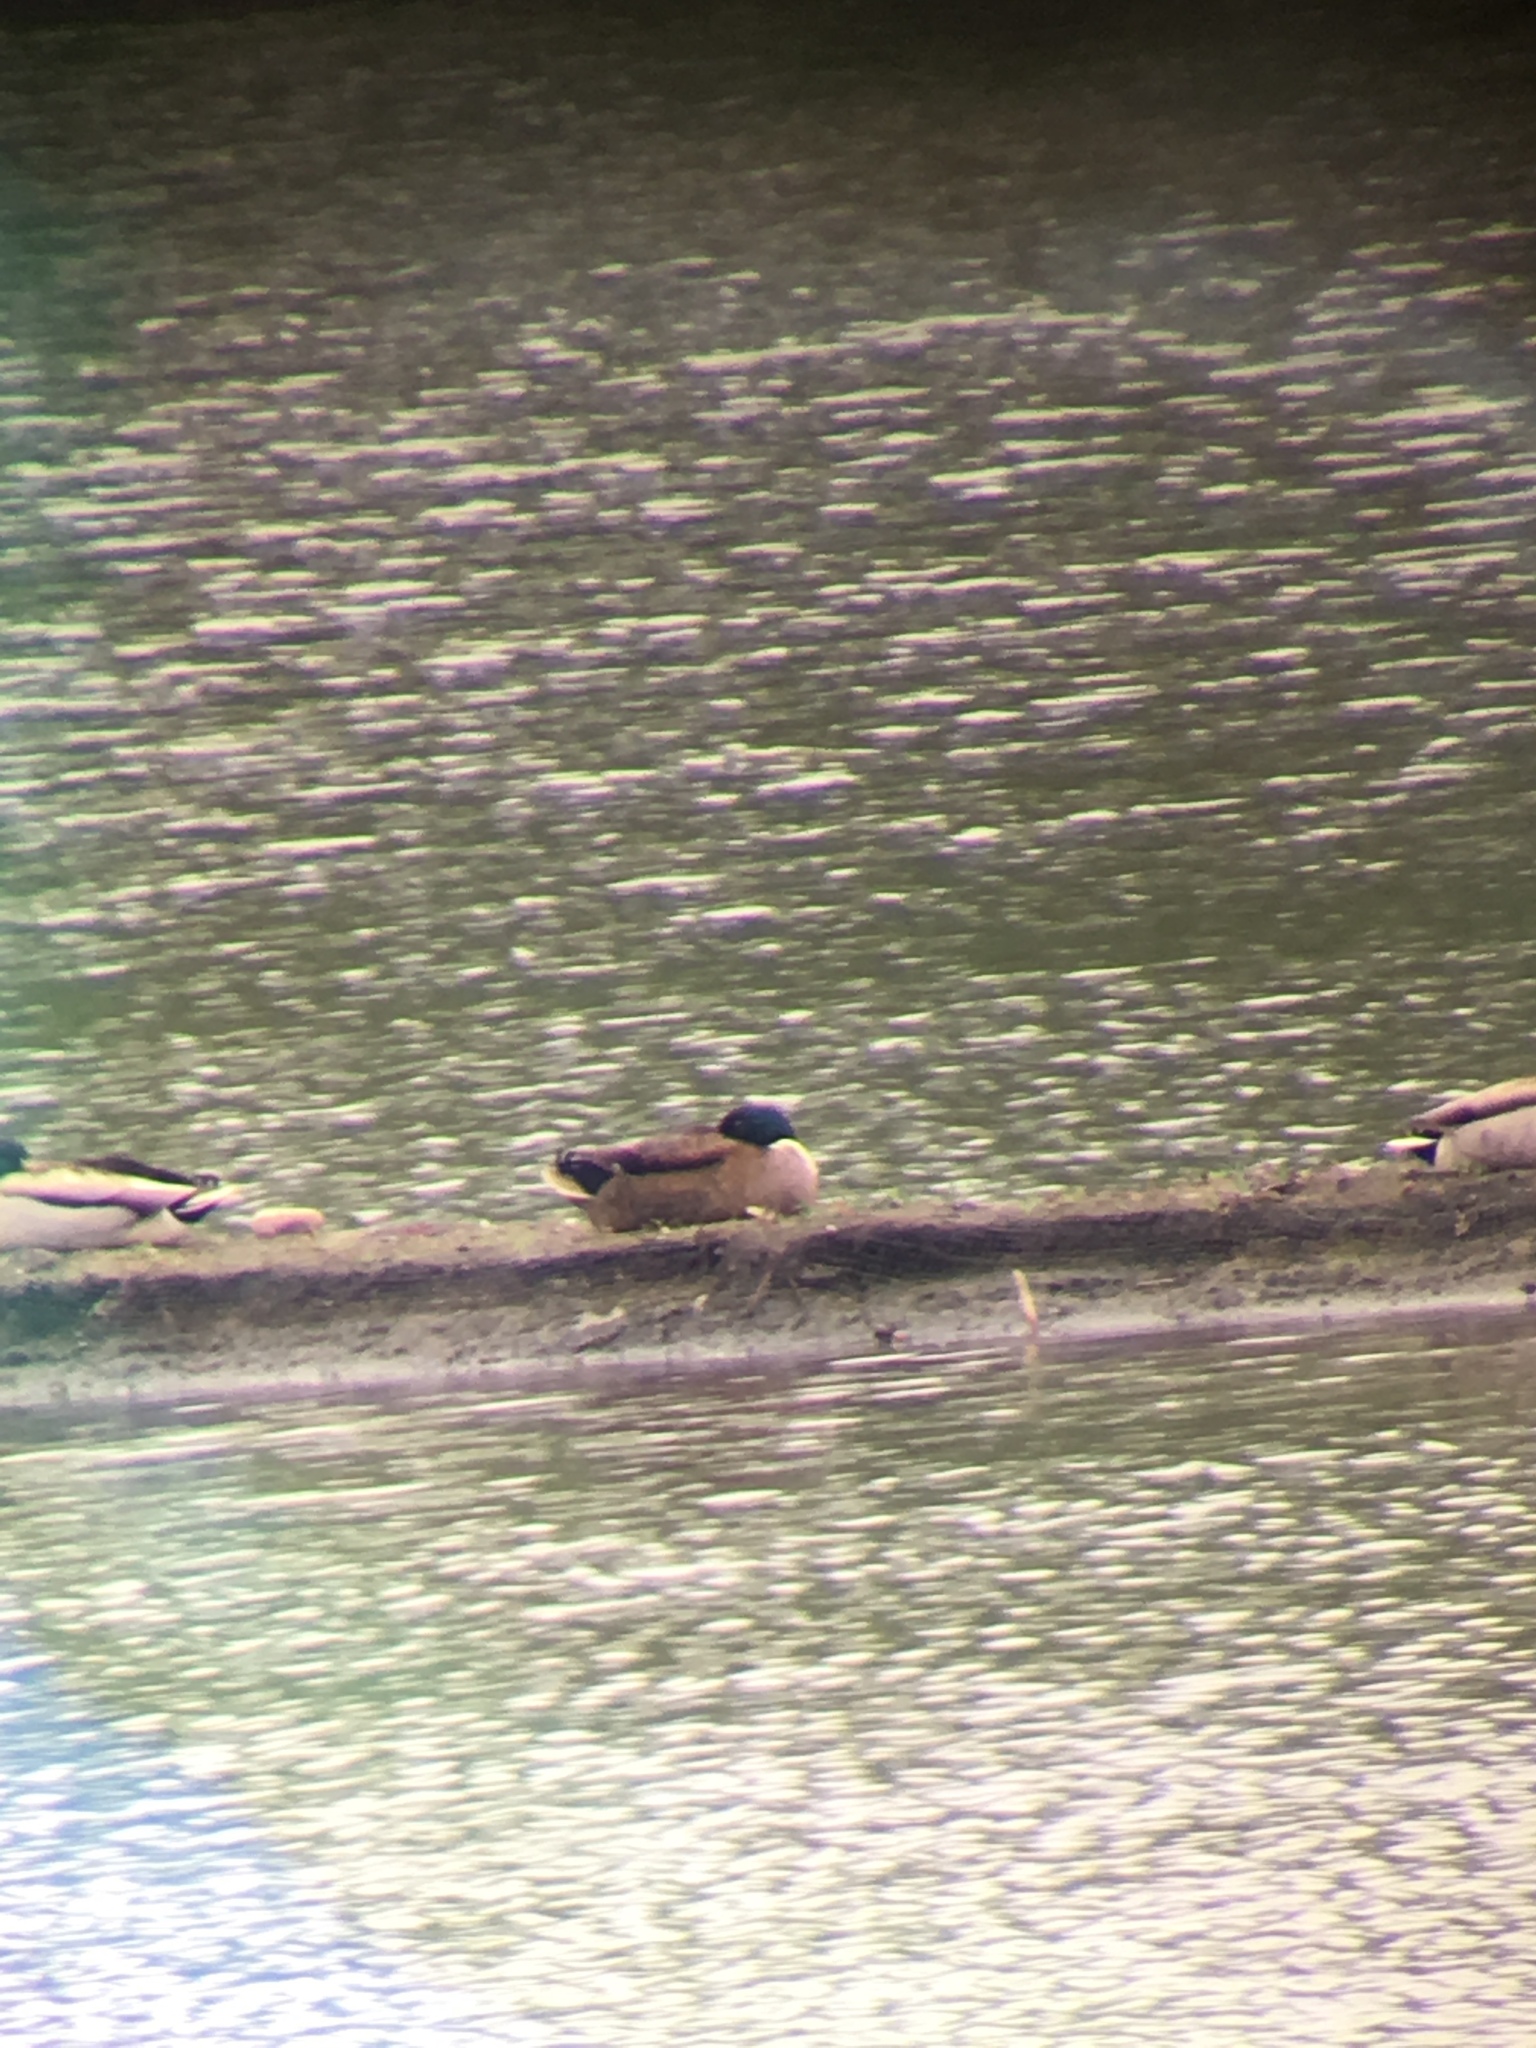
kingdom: Animalia
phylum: Chordata
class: Aves
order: Anseriformes
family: Anatidae
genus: Anas
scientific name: Anas platyrhynchos
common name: Mallard
